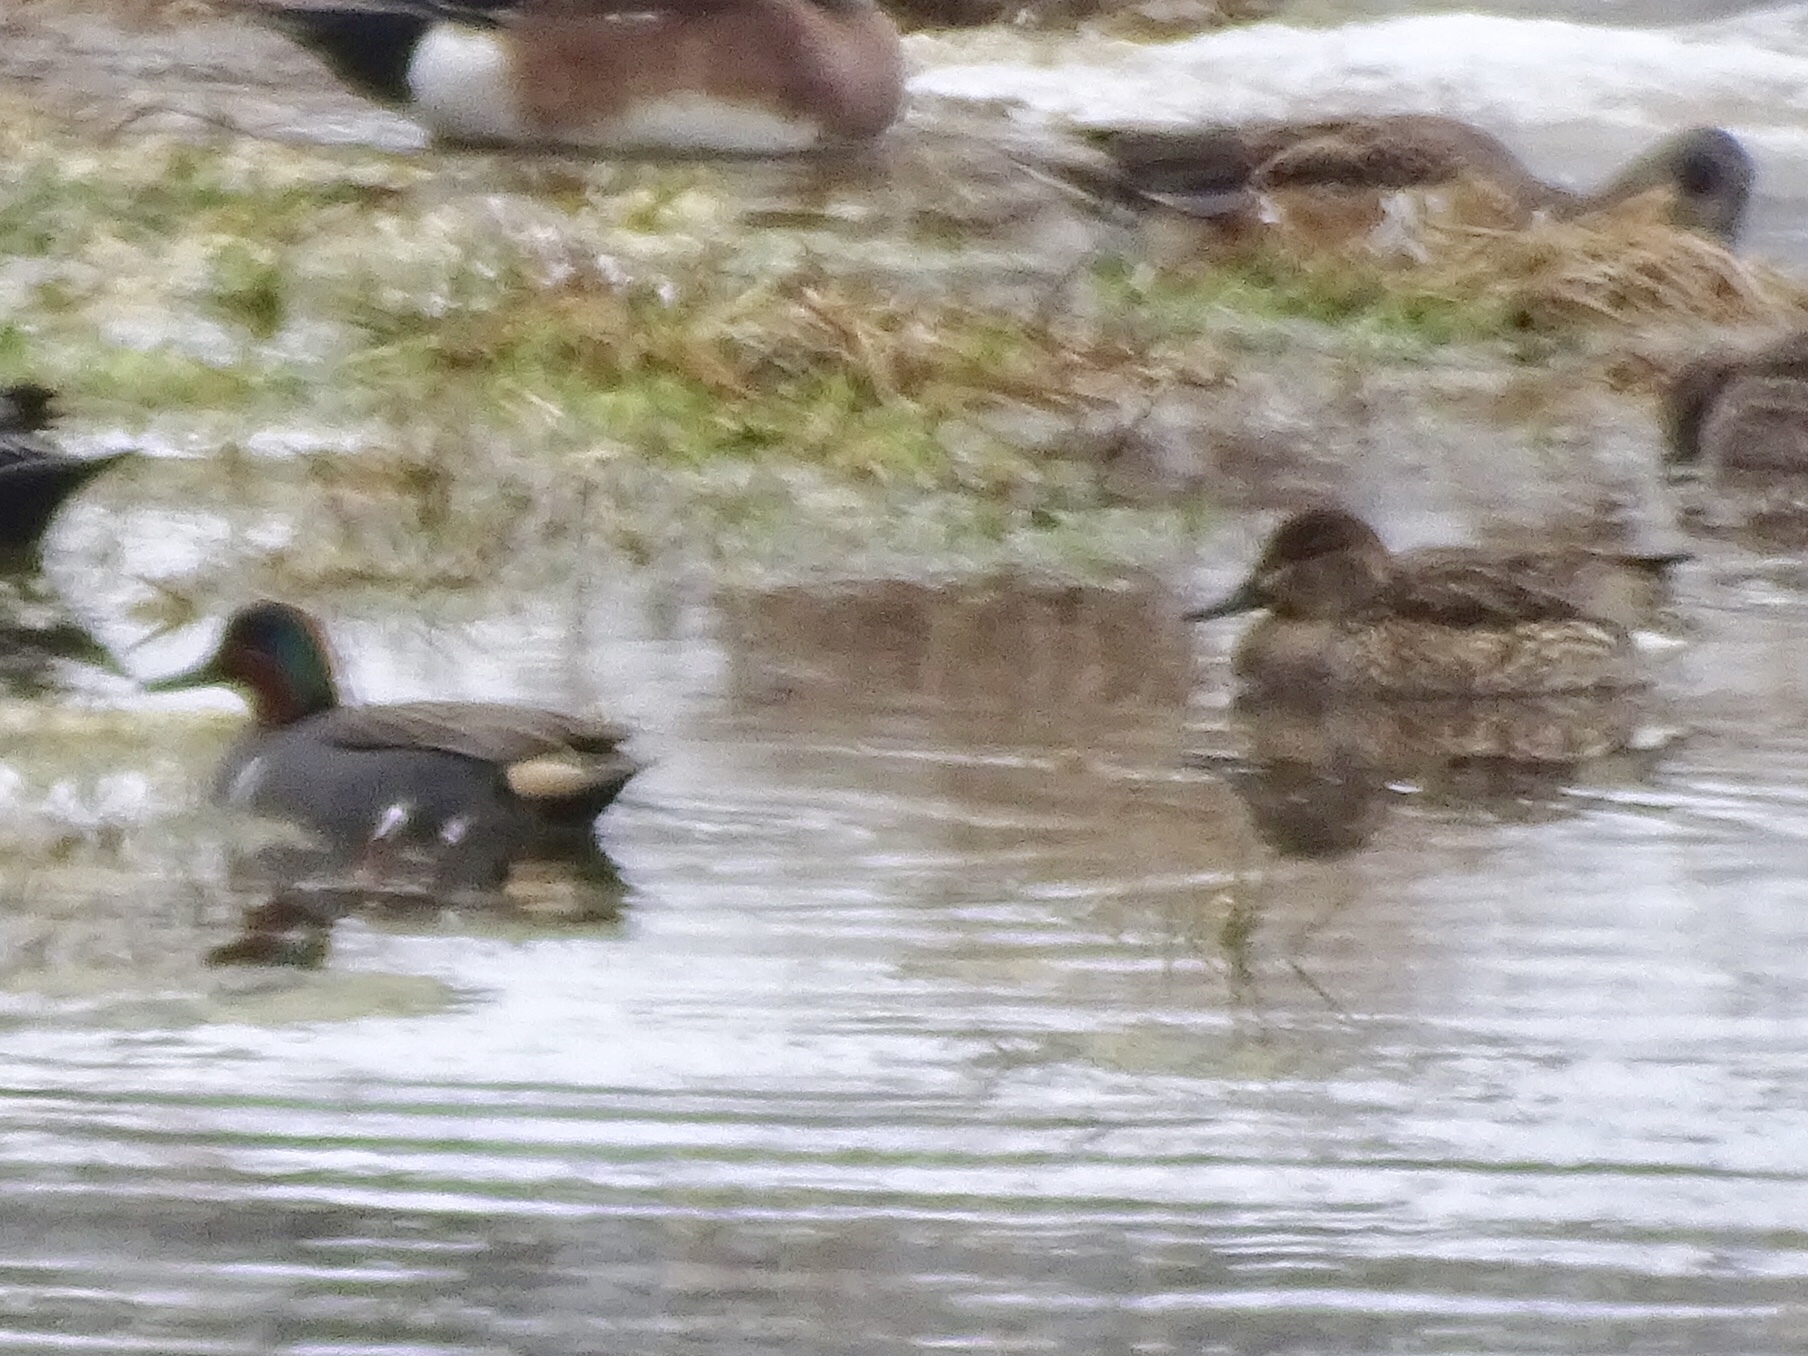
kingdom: Animalia
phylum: Chordata
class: Aves
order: Anseriformes
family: Anatidae
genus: Anas
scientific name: Anas crecca
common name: Eurasian teal
